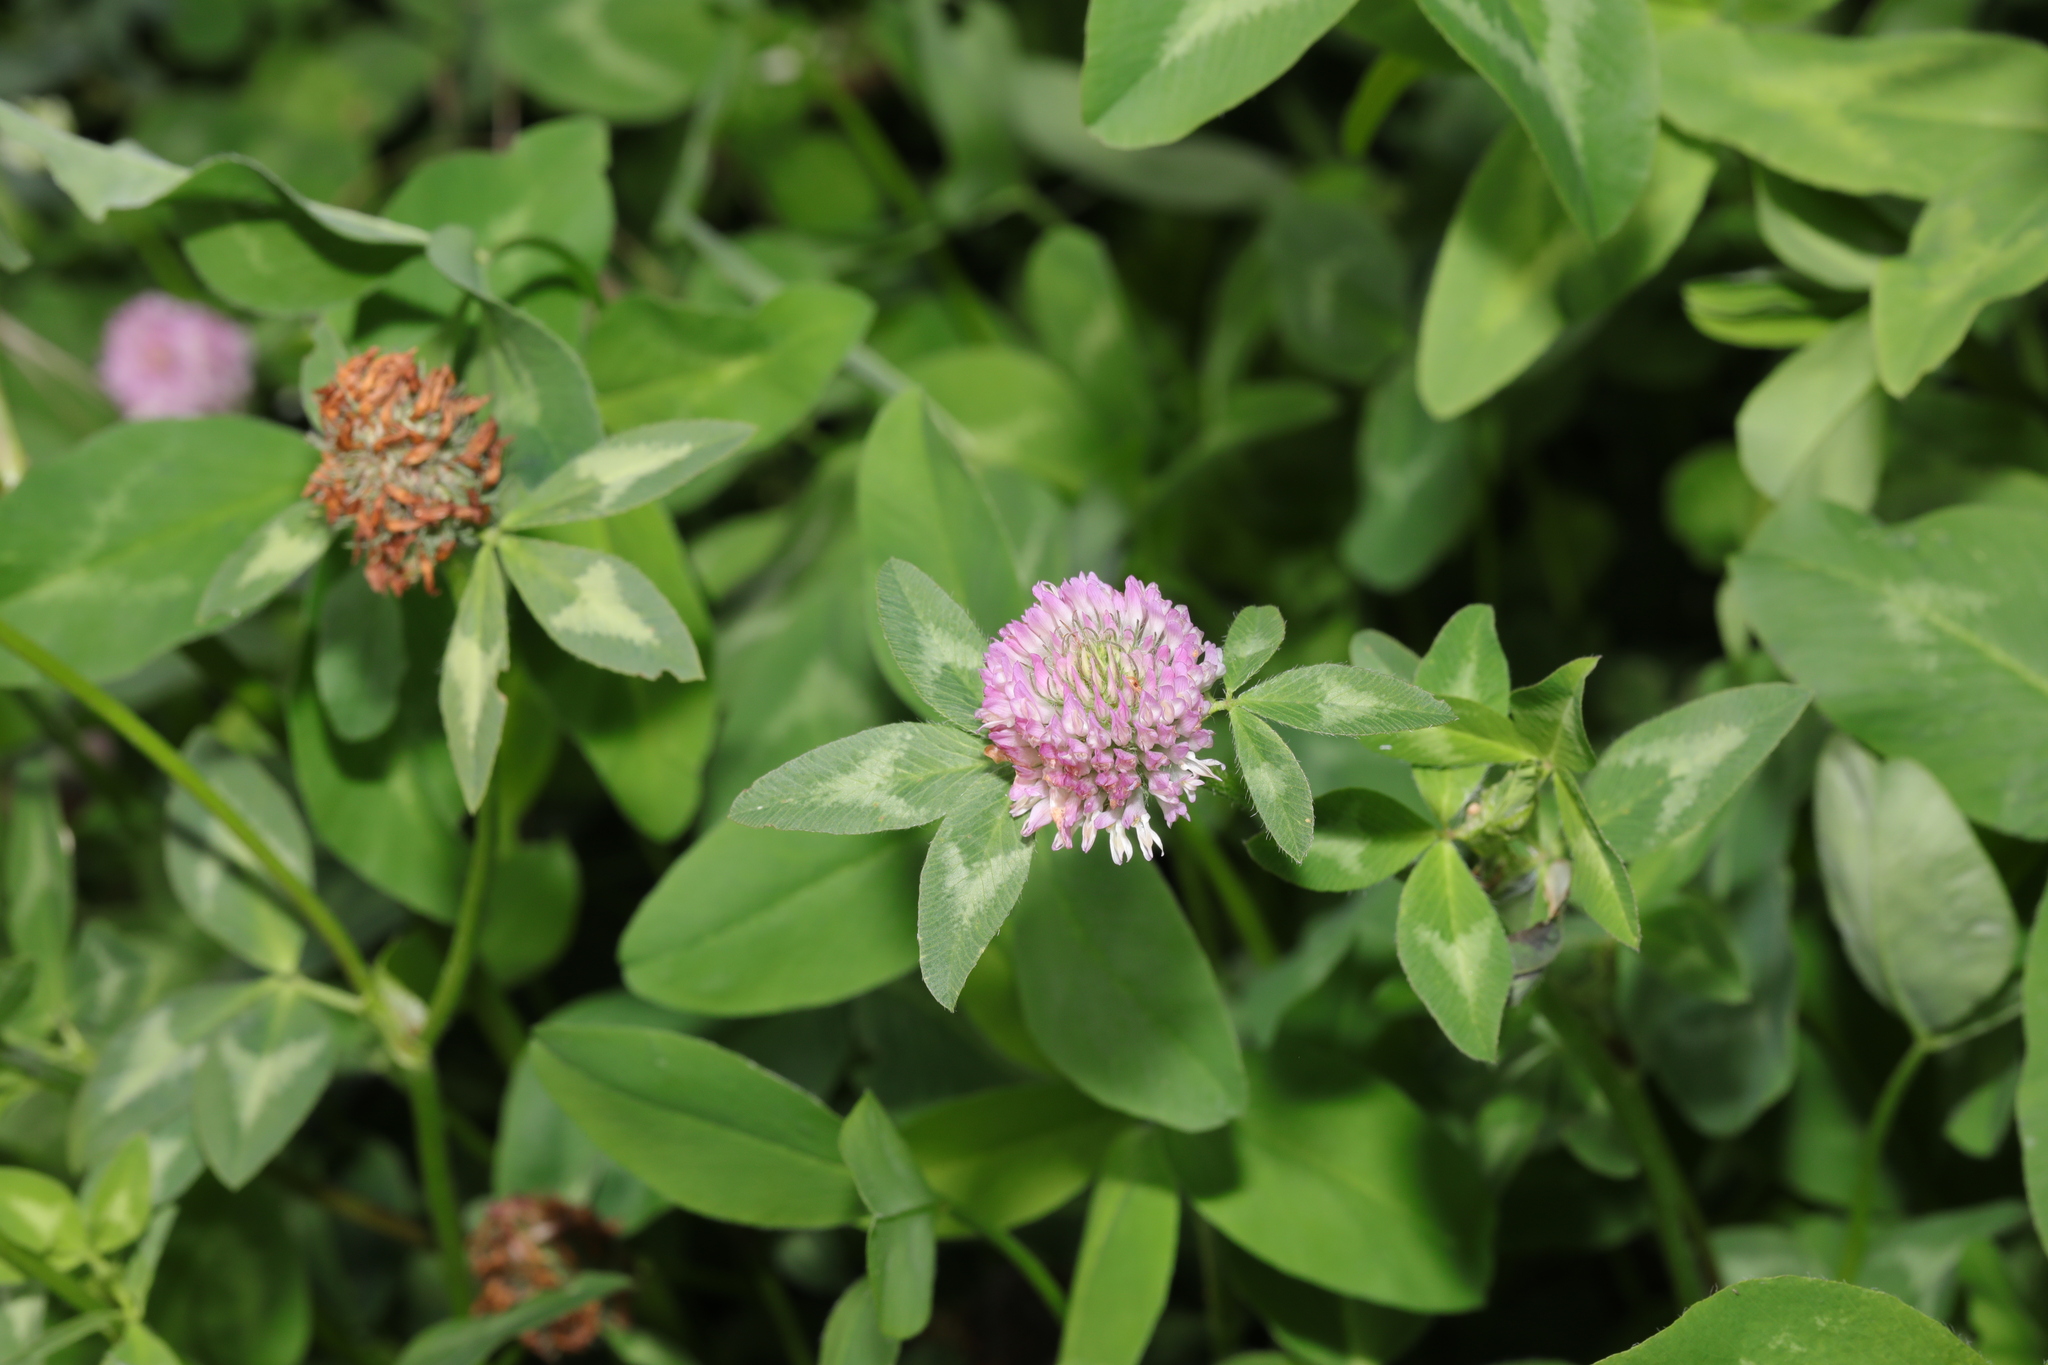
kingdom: Plantae
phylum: Tracheophyta
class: Magnoliopsida
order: Fabales
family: Fabaceae
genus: Trifolium
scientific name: Trifolium pratense
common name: Red clover
